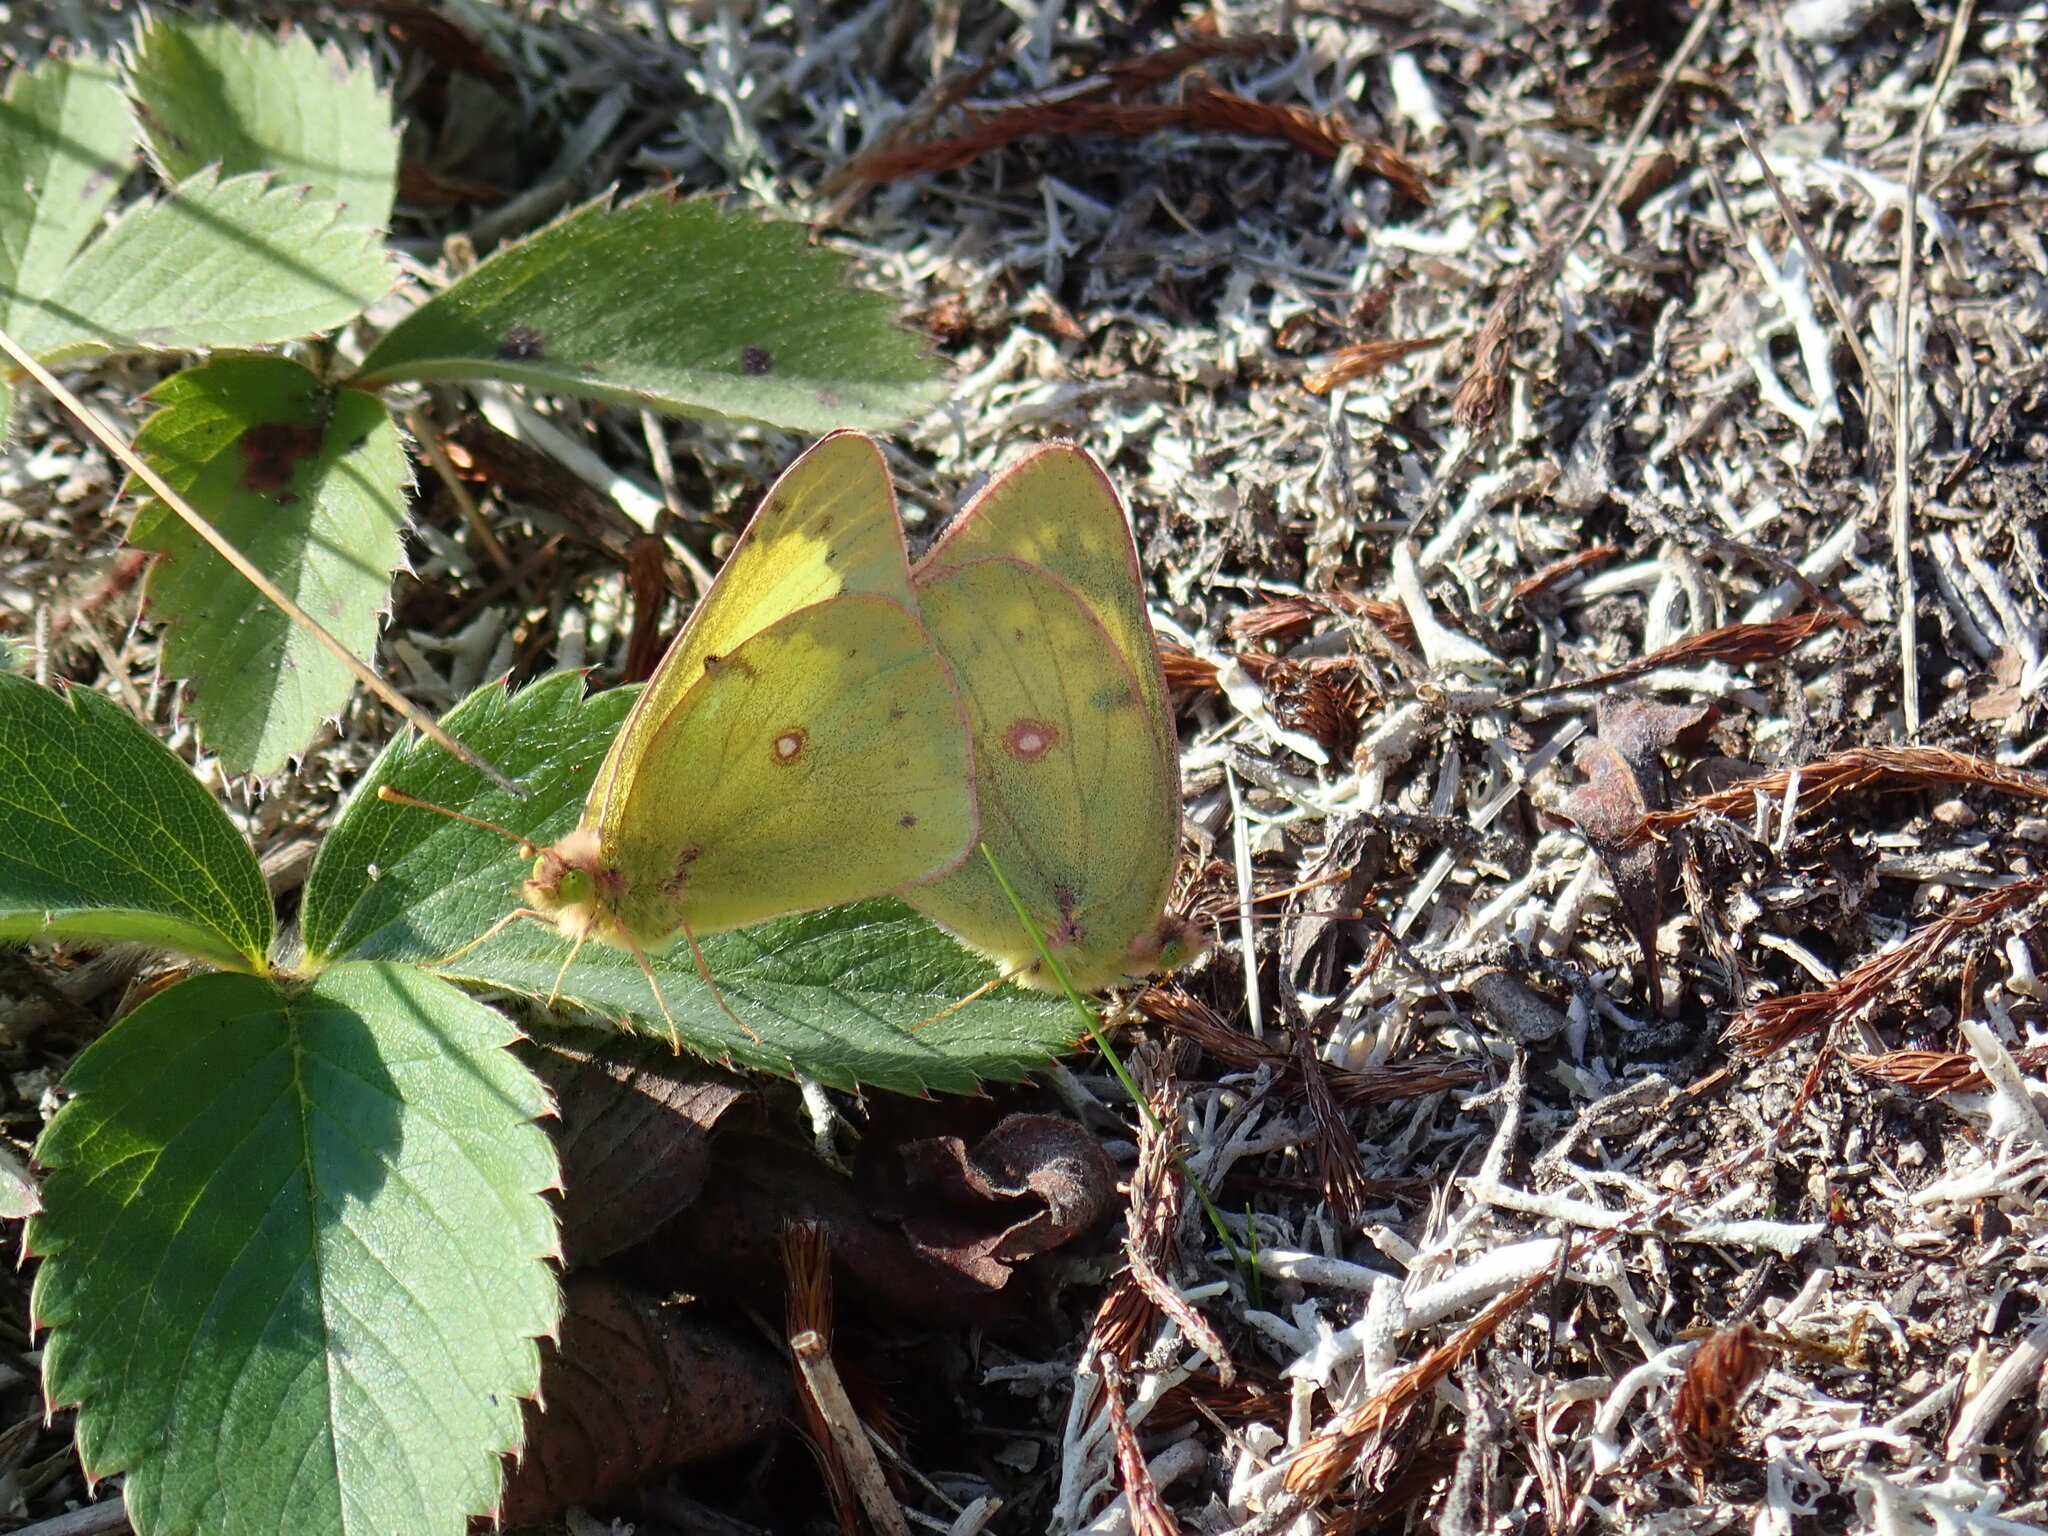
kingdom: Animalia
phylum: Arthropoda
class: Insecta
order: Lepidoptera
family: Pieridae
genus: Colias
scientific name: Colias philodice
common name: Clouded sulphur
